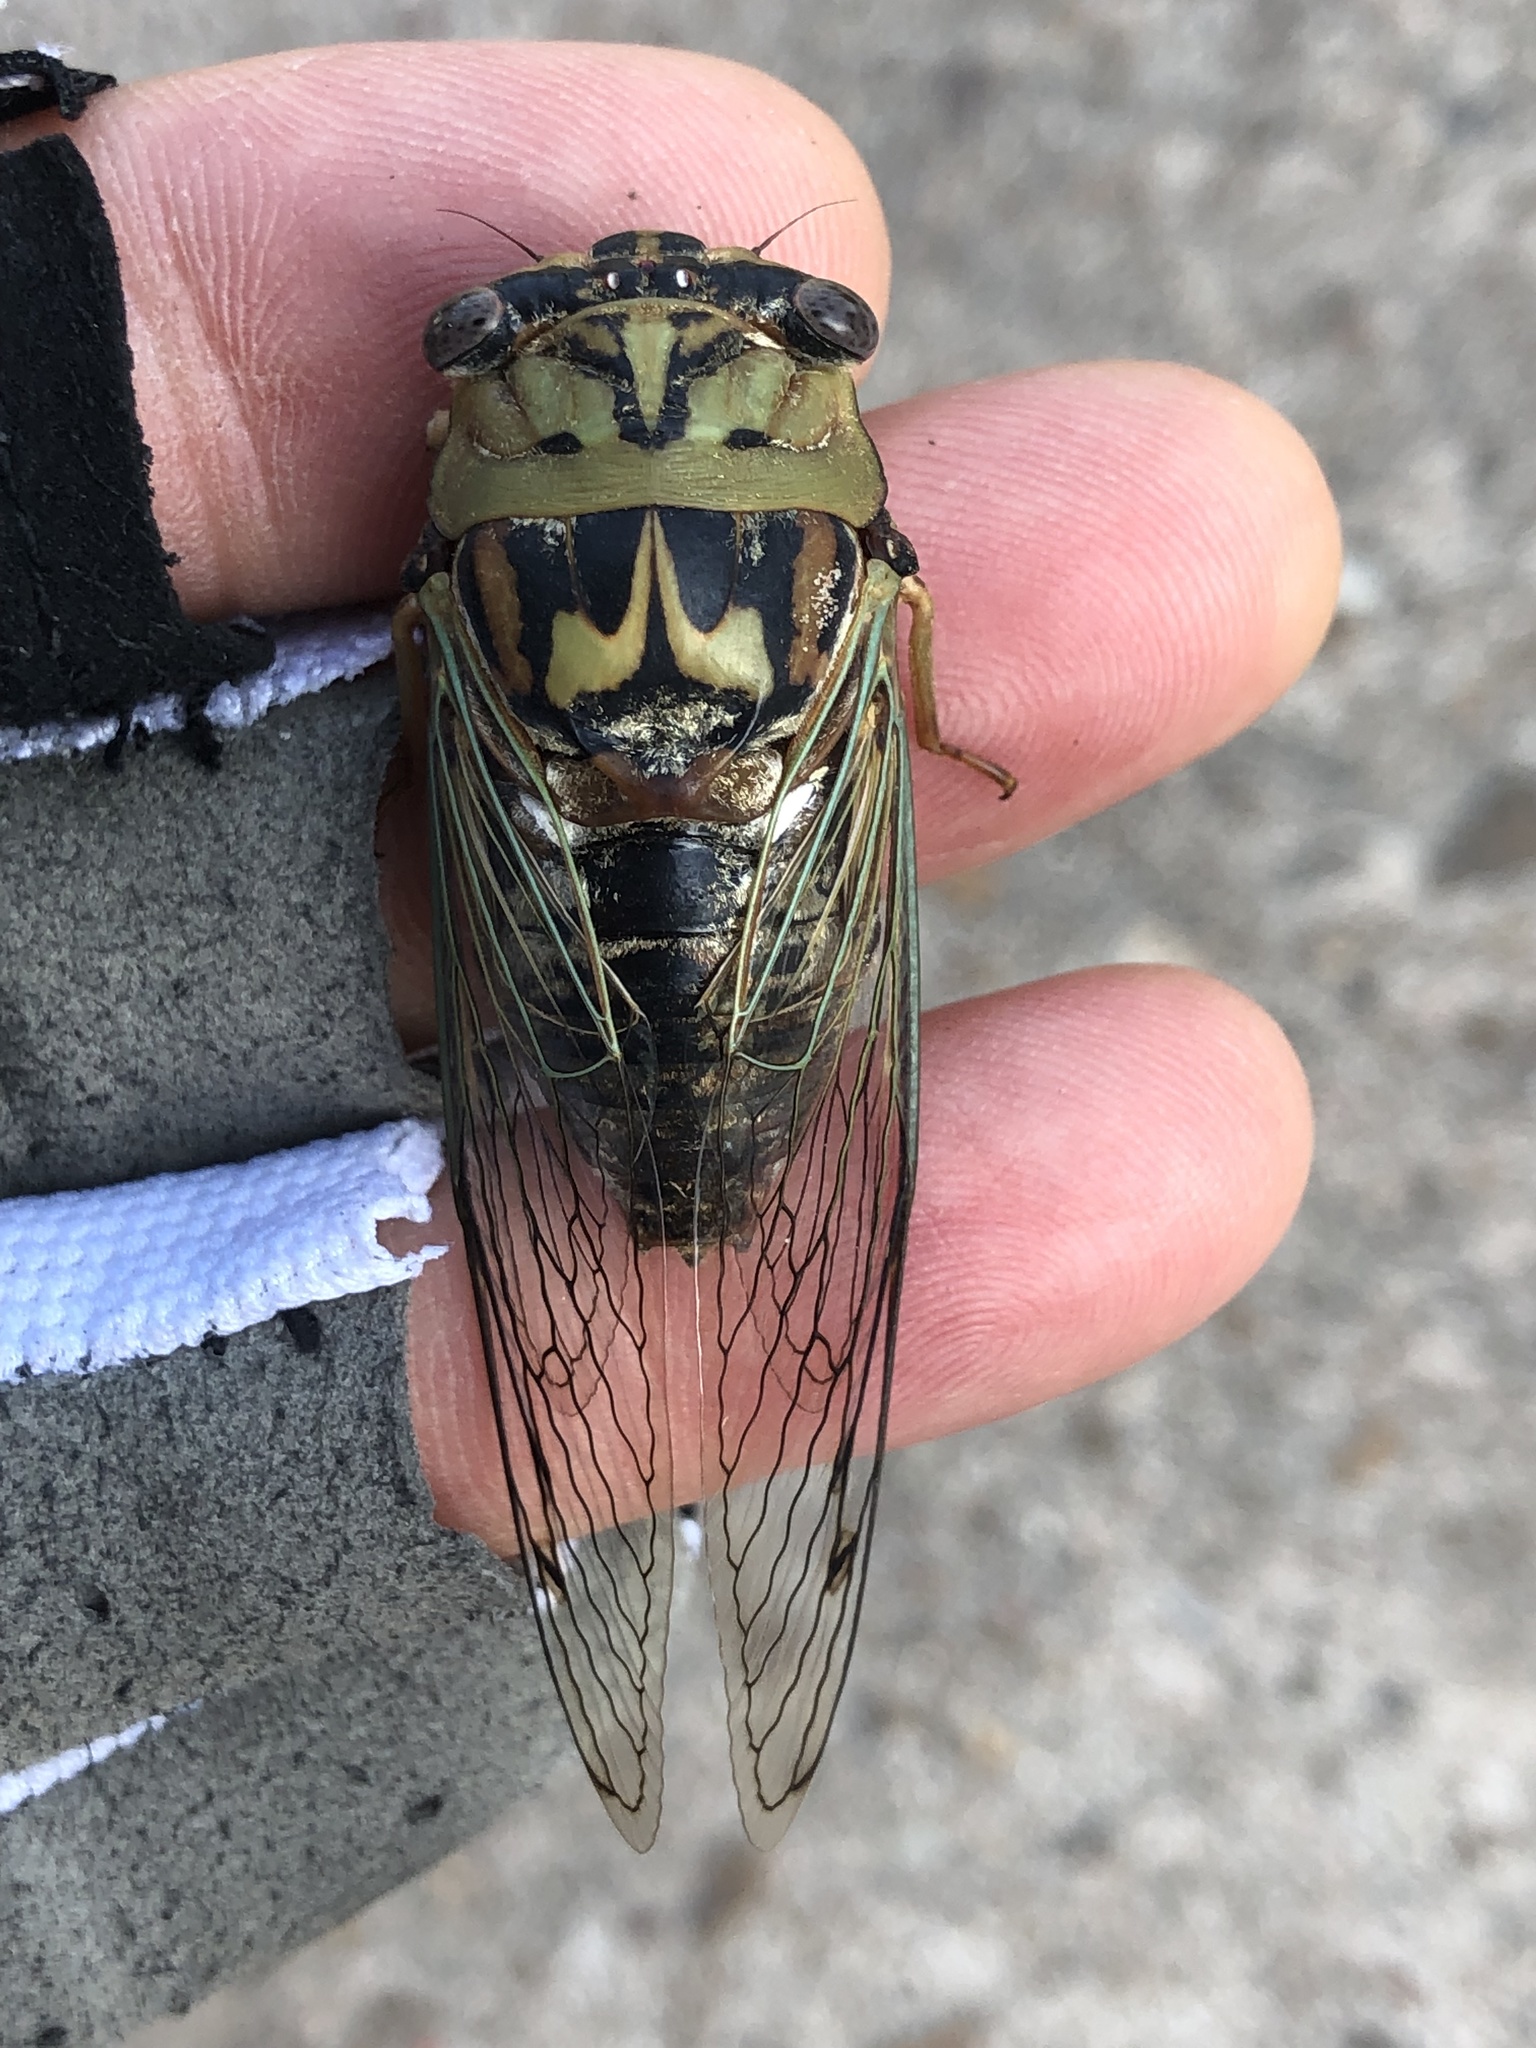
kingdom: Animalia
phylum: Arthropoda
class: Insecta
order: Hemiptera
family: Cicadidae
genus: Megatibicen
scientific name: Megatibicen resh
